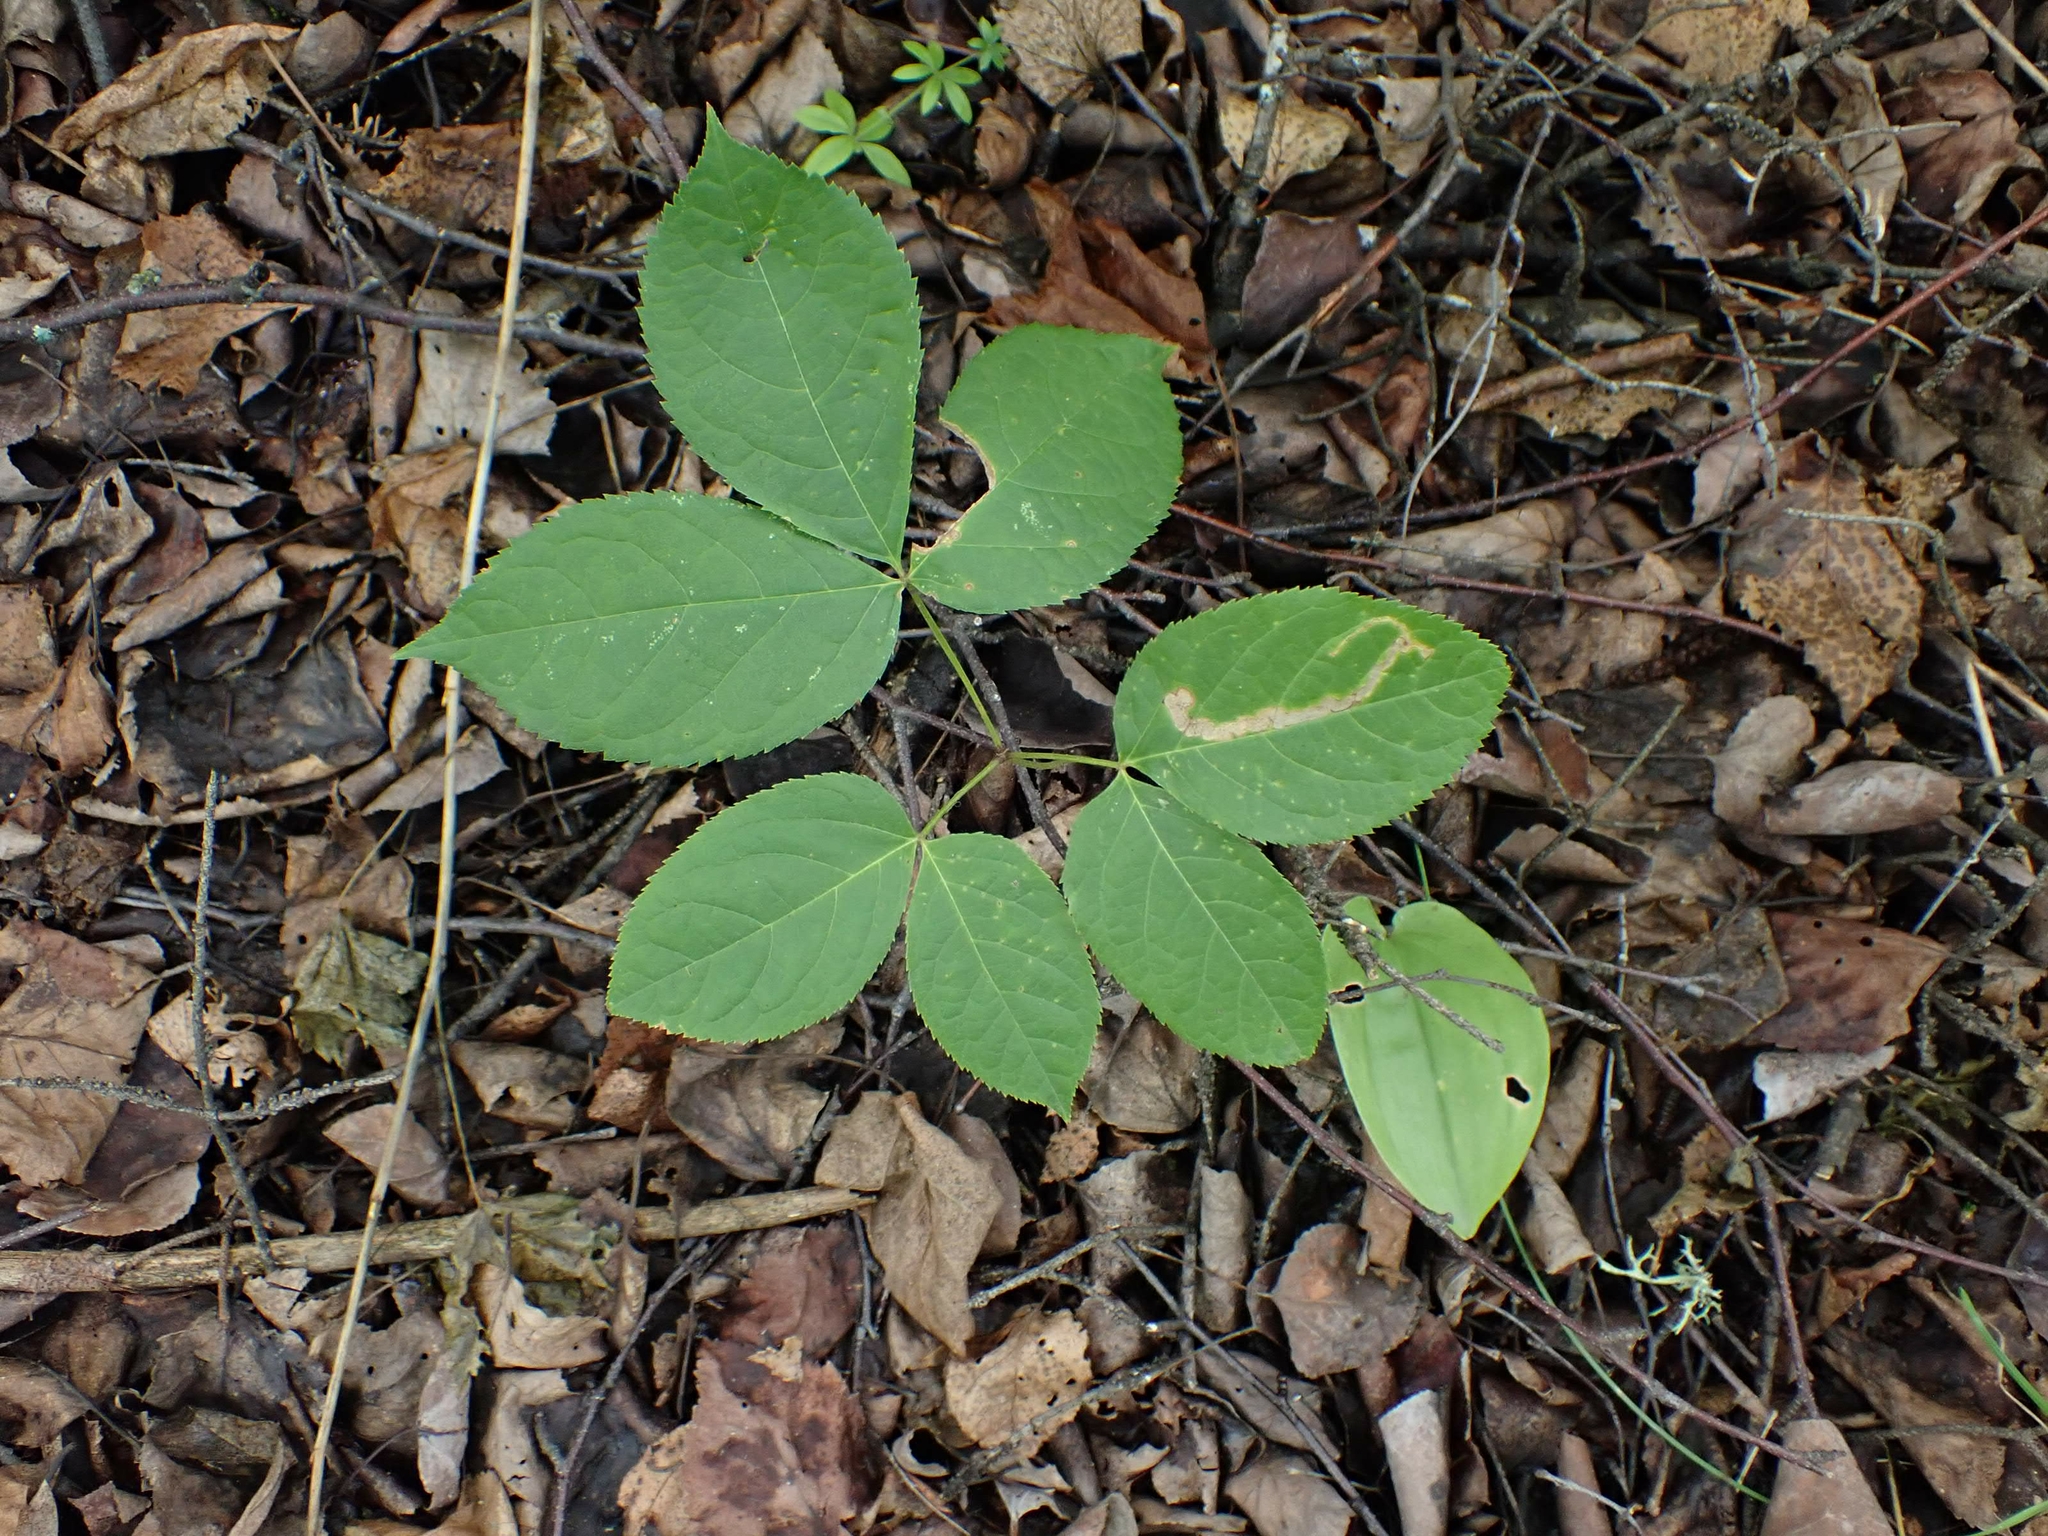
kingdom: Plantae
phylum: Tracheophyta
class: Magnoliopsida
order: Apiales
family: Araliaceae
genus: Aralia
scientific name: Aralia nudicaulis
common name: Wild sarsaparilla
